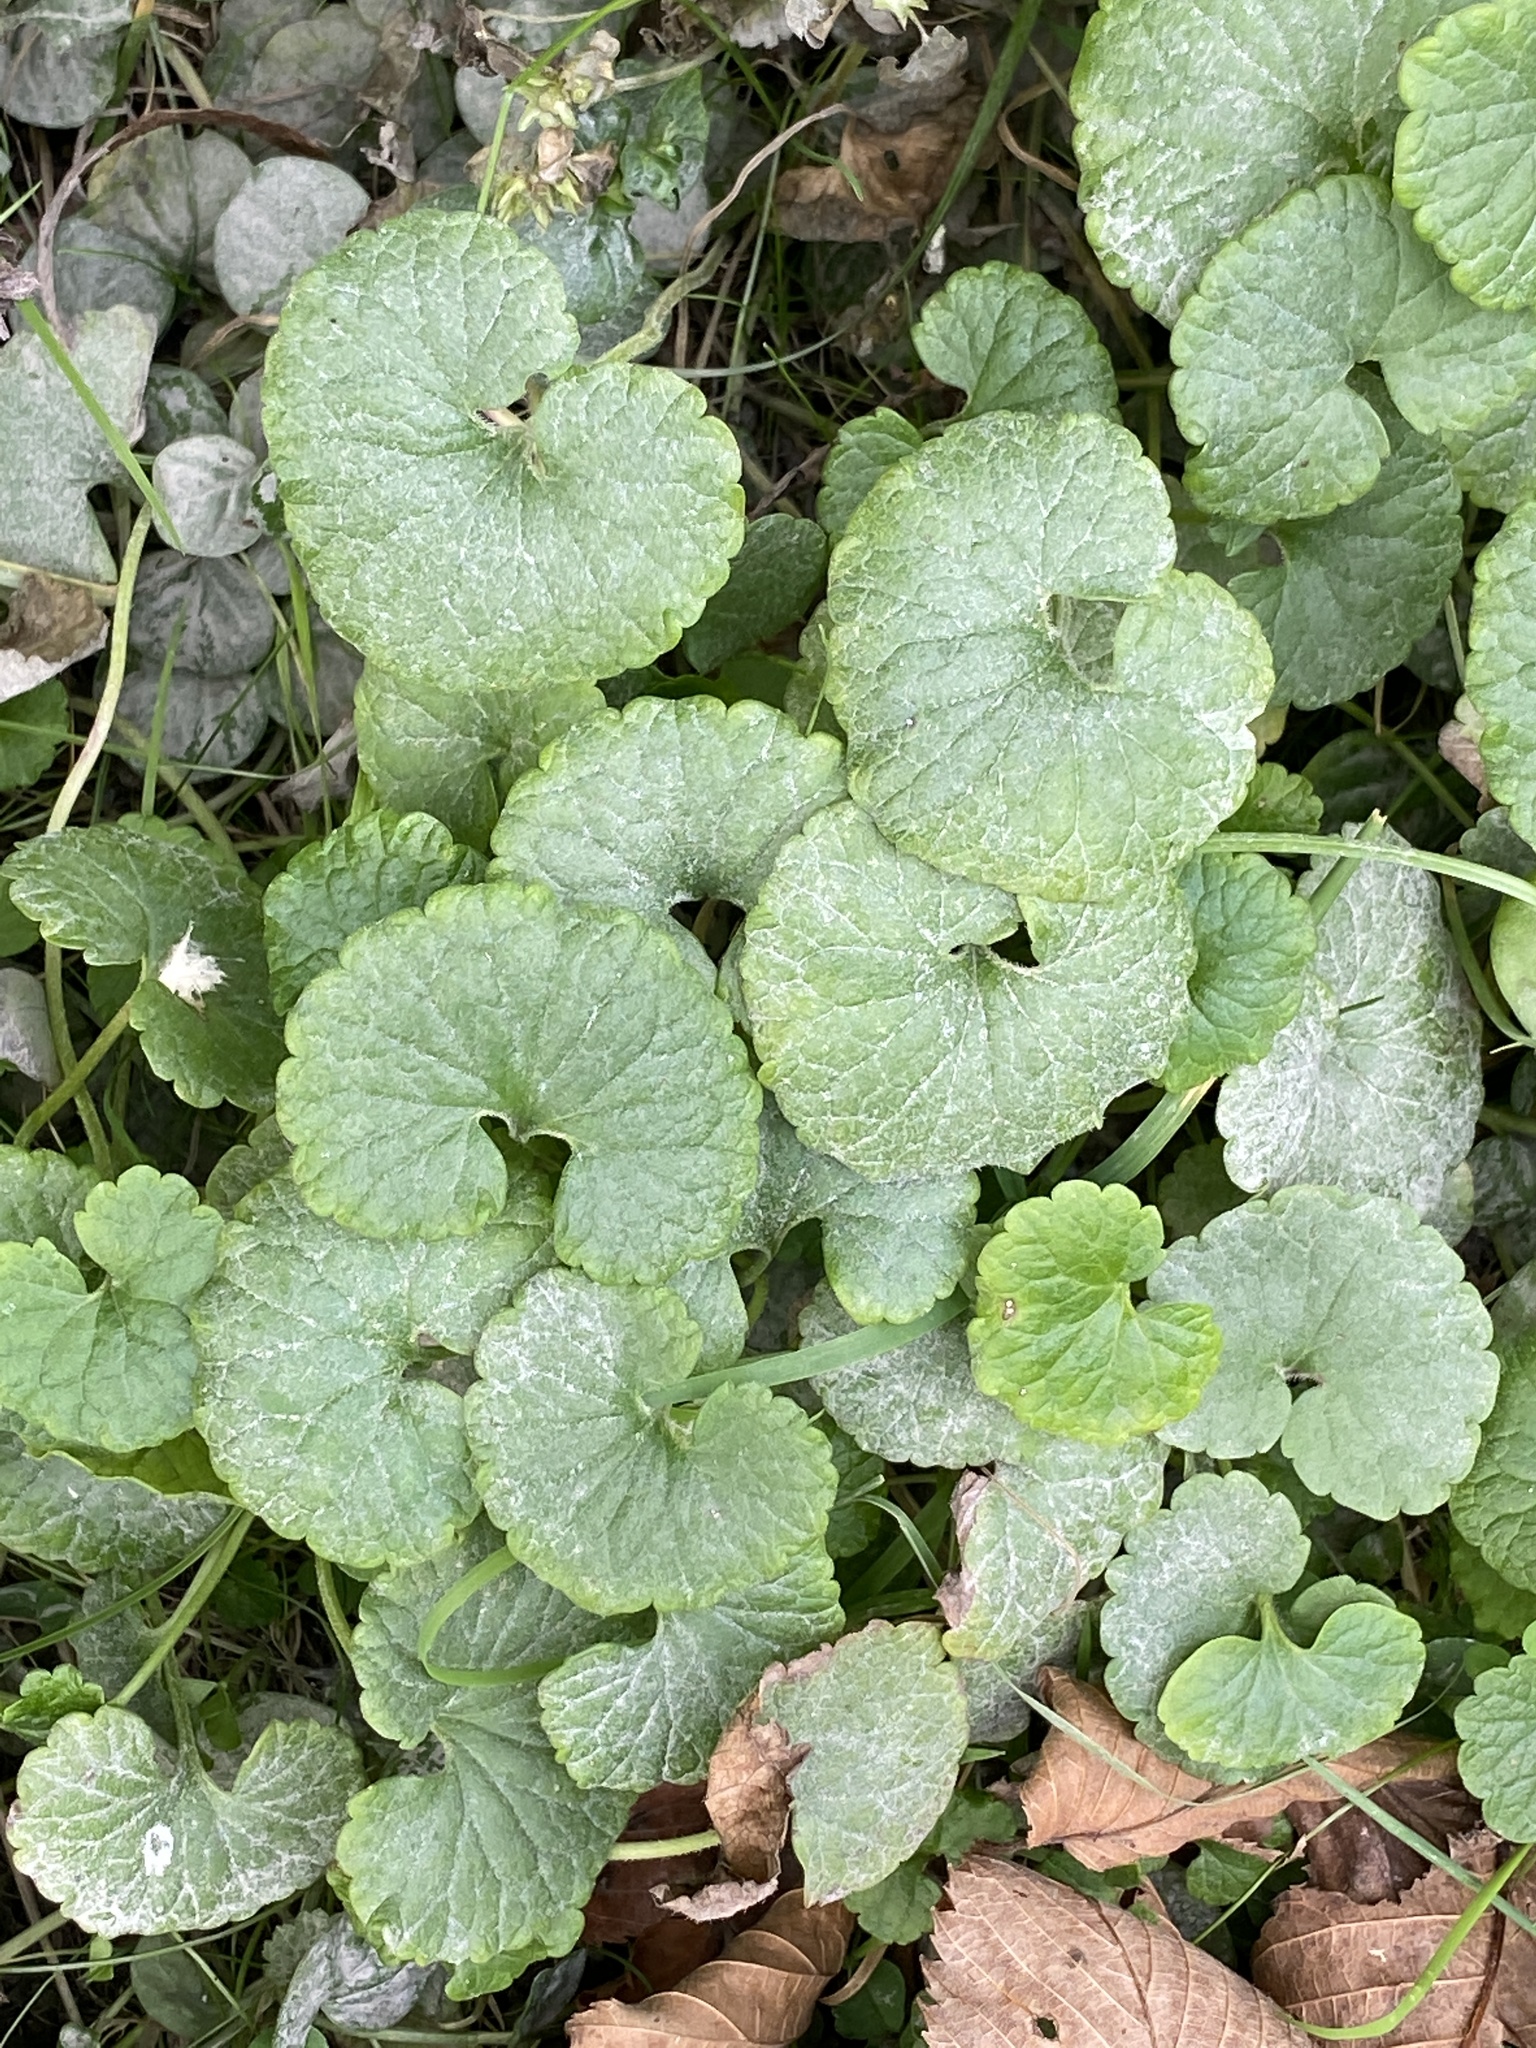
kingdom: Plantae
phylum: Tracheophyta
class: Magnoliopsida
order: Lamiales
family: Lamiaceae
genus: Glechoma
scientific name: Glechoma hederacea
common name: Ground ivy
